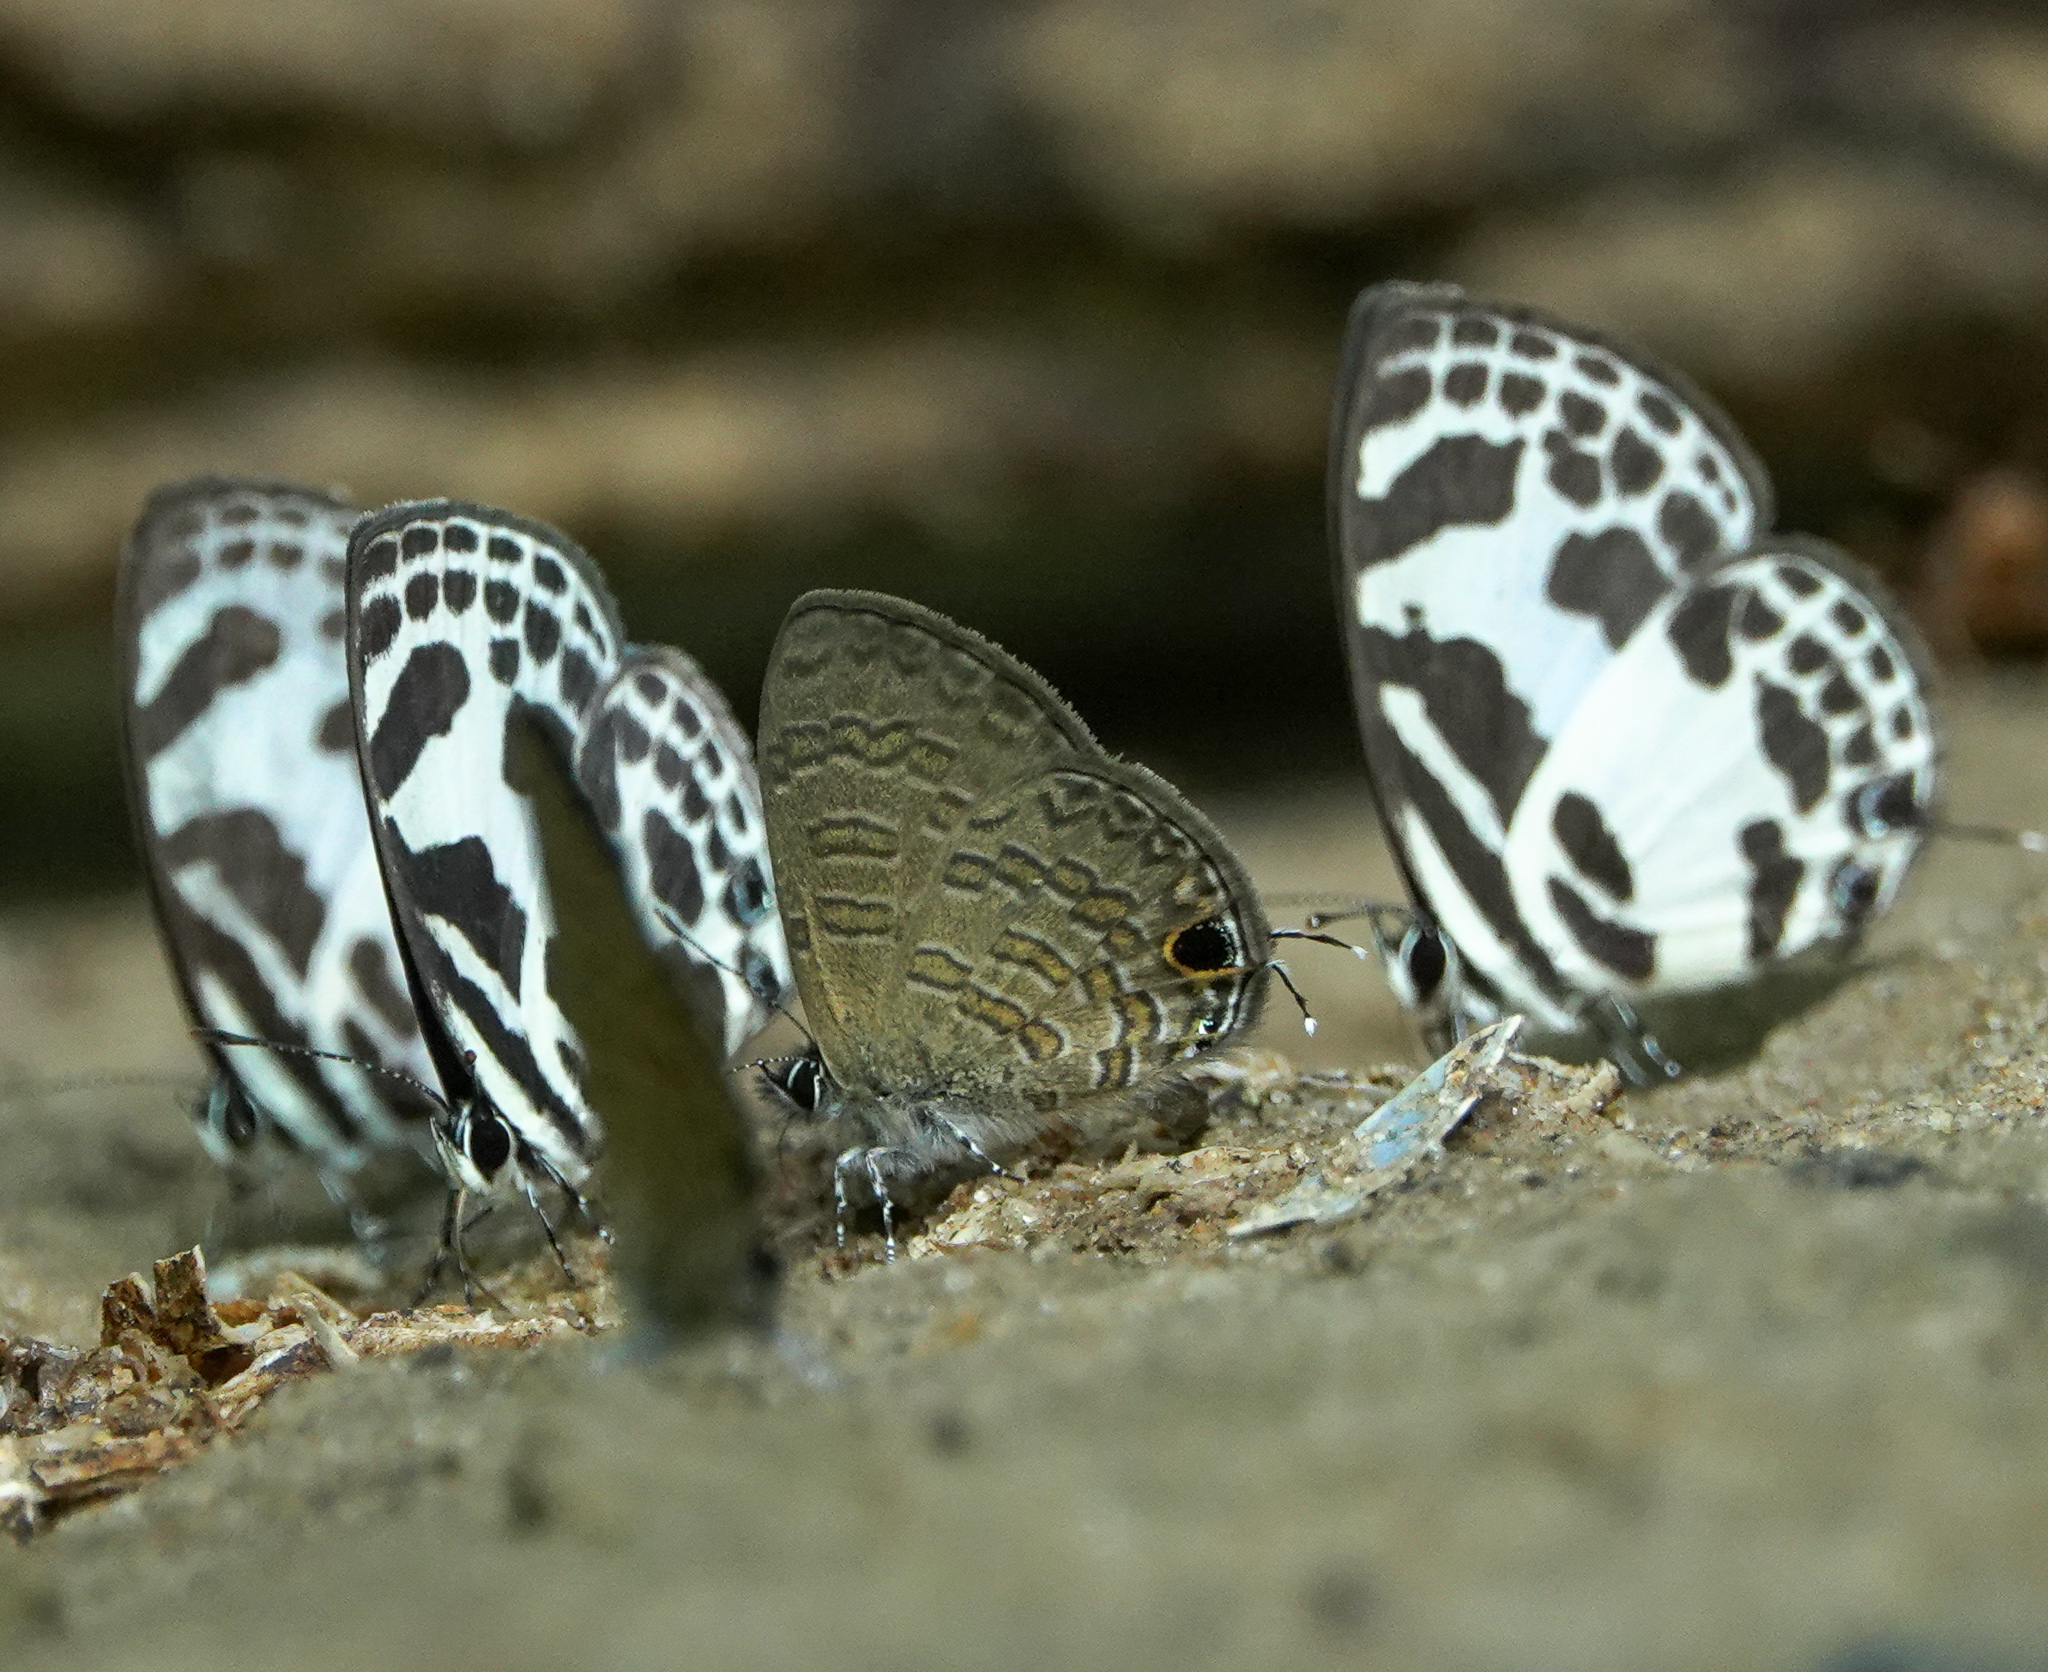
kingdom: Animalia
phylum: Arthropoda
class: Insecta
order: Lepidoptera
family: Lycaenidae
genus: Prosotas
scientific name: Prosotas nora
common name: Common line blue
